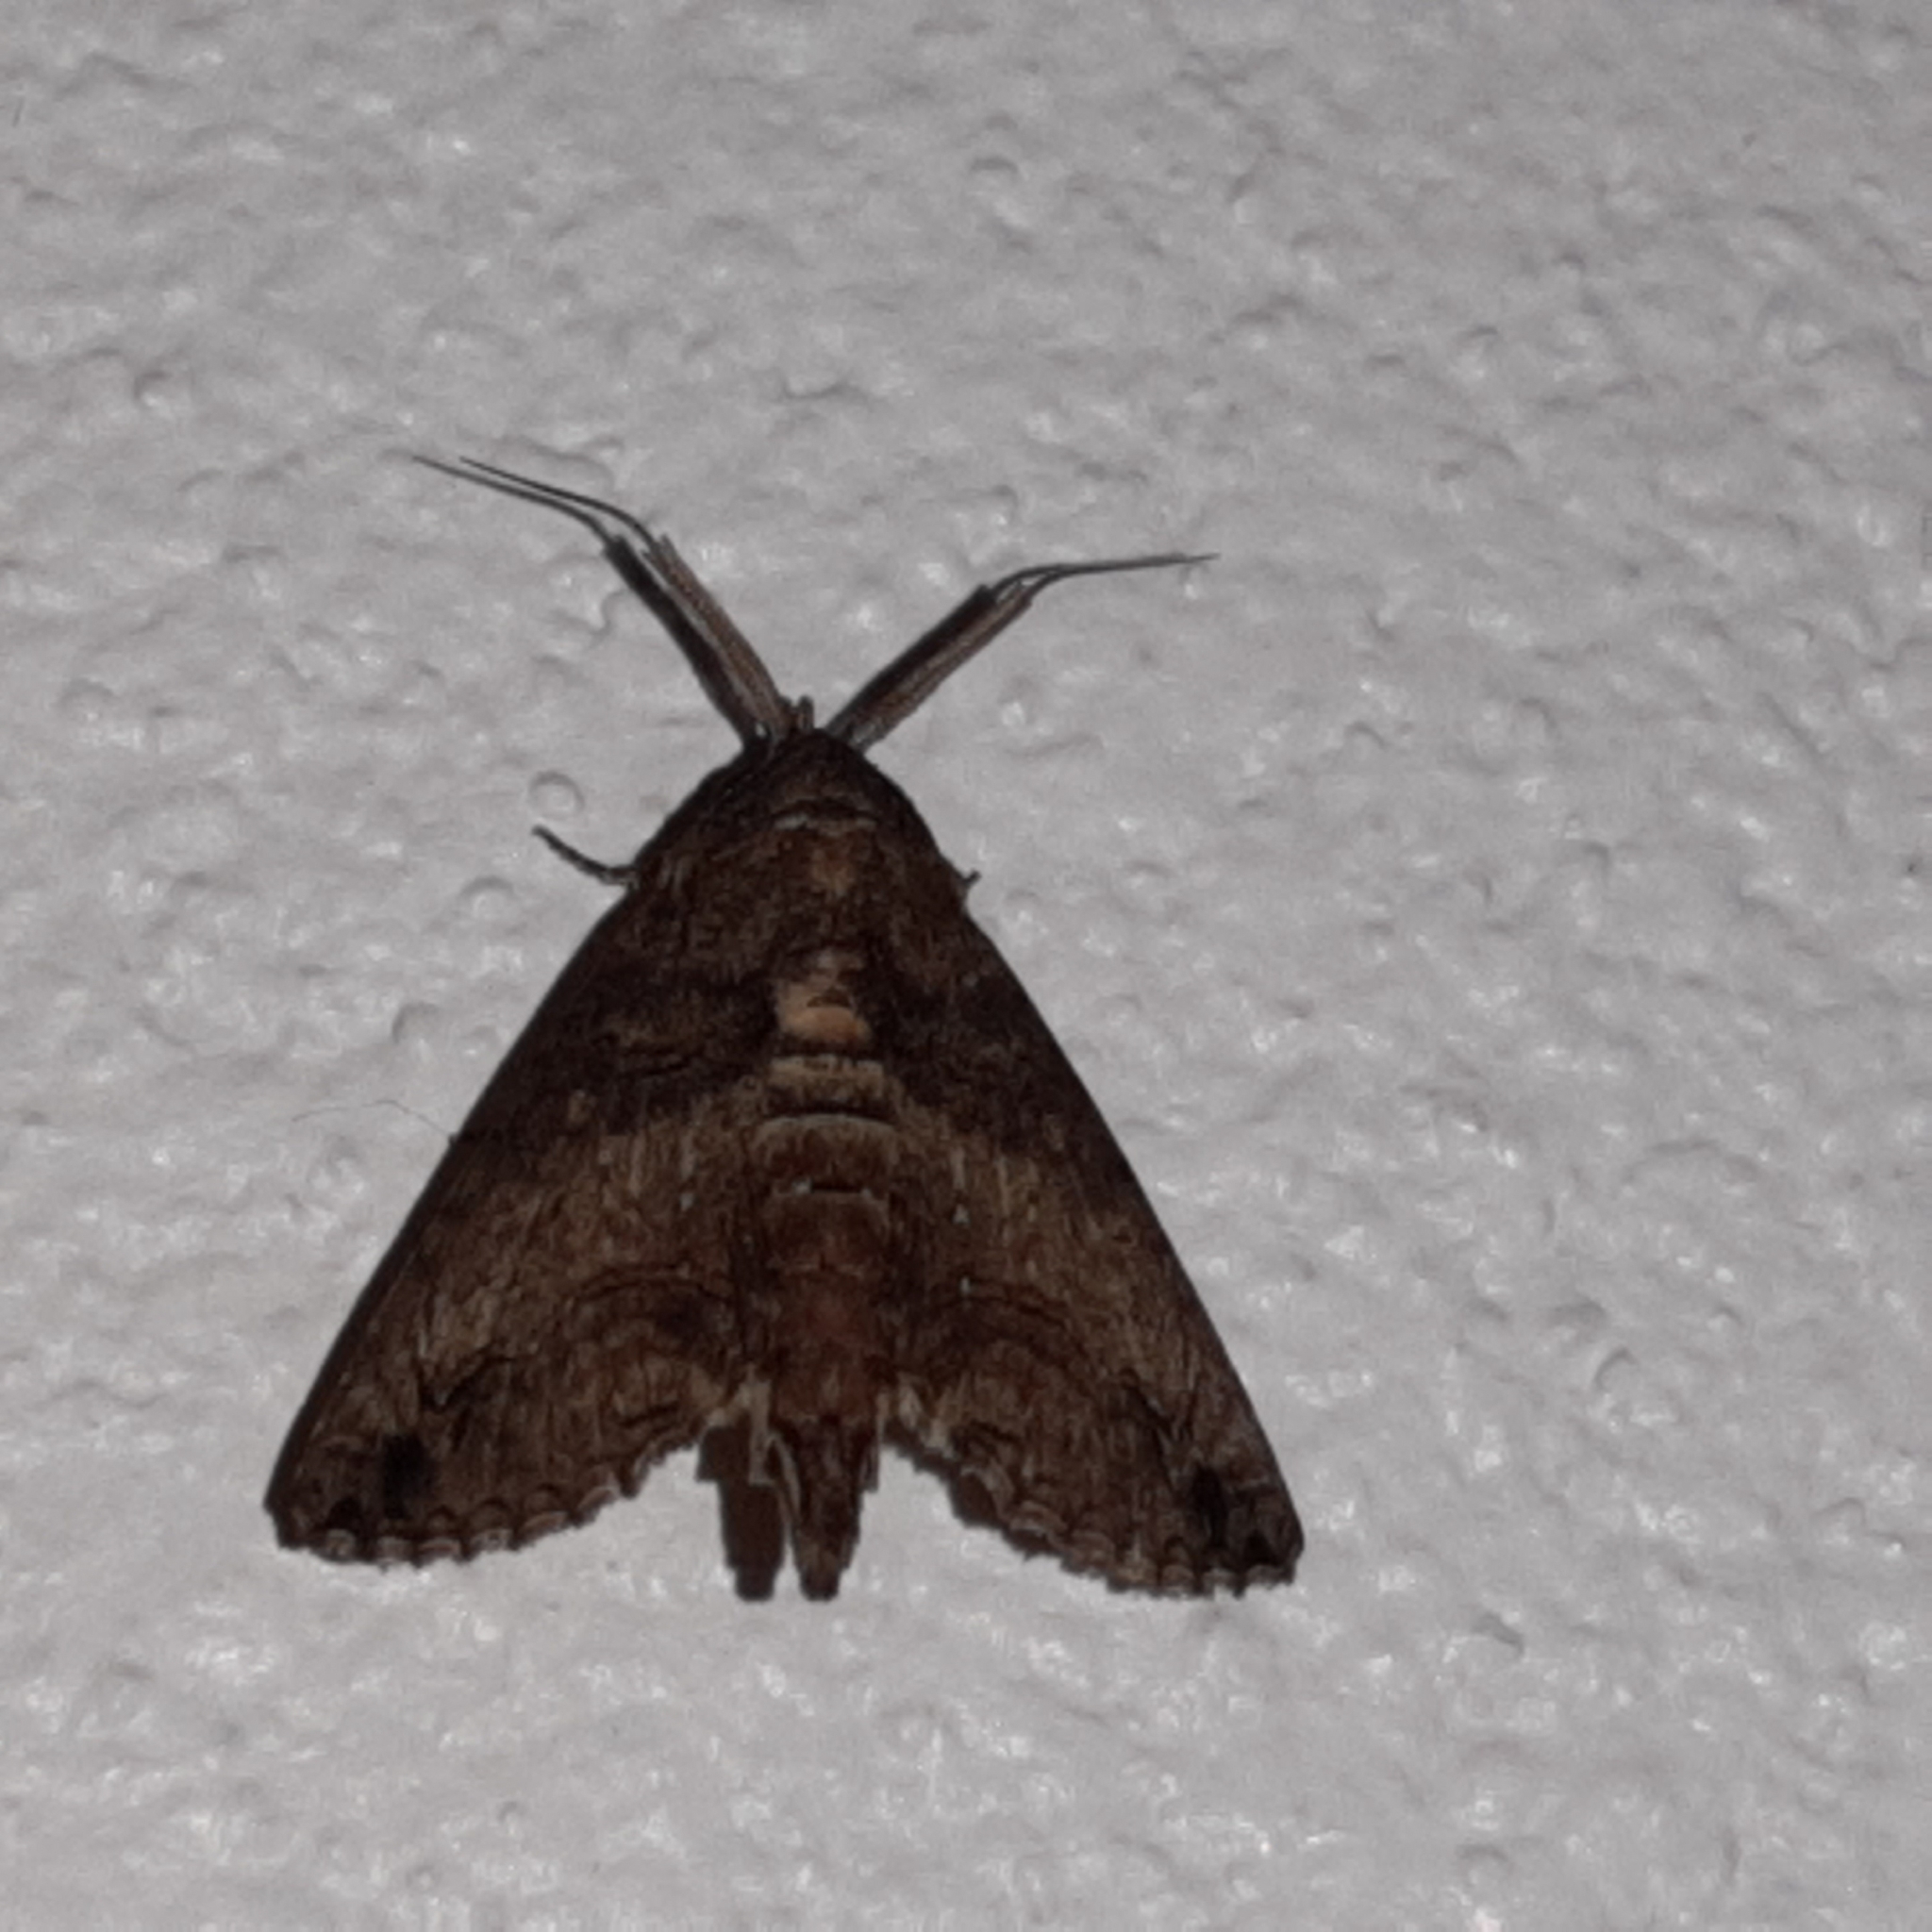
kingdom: Animalia
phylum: Arthropoda
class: Insecta
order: Lepidoptera
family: Euteliidae
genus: Paectes
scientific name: Paectes arcigera
